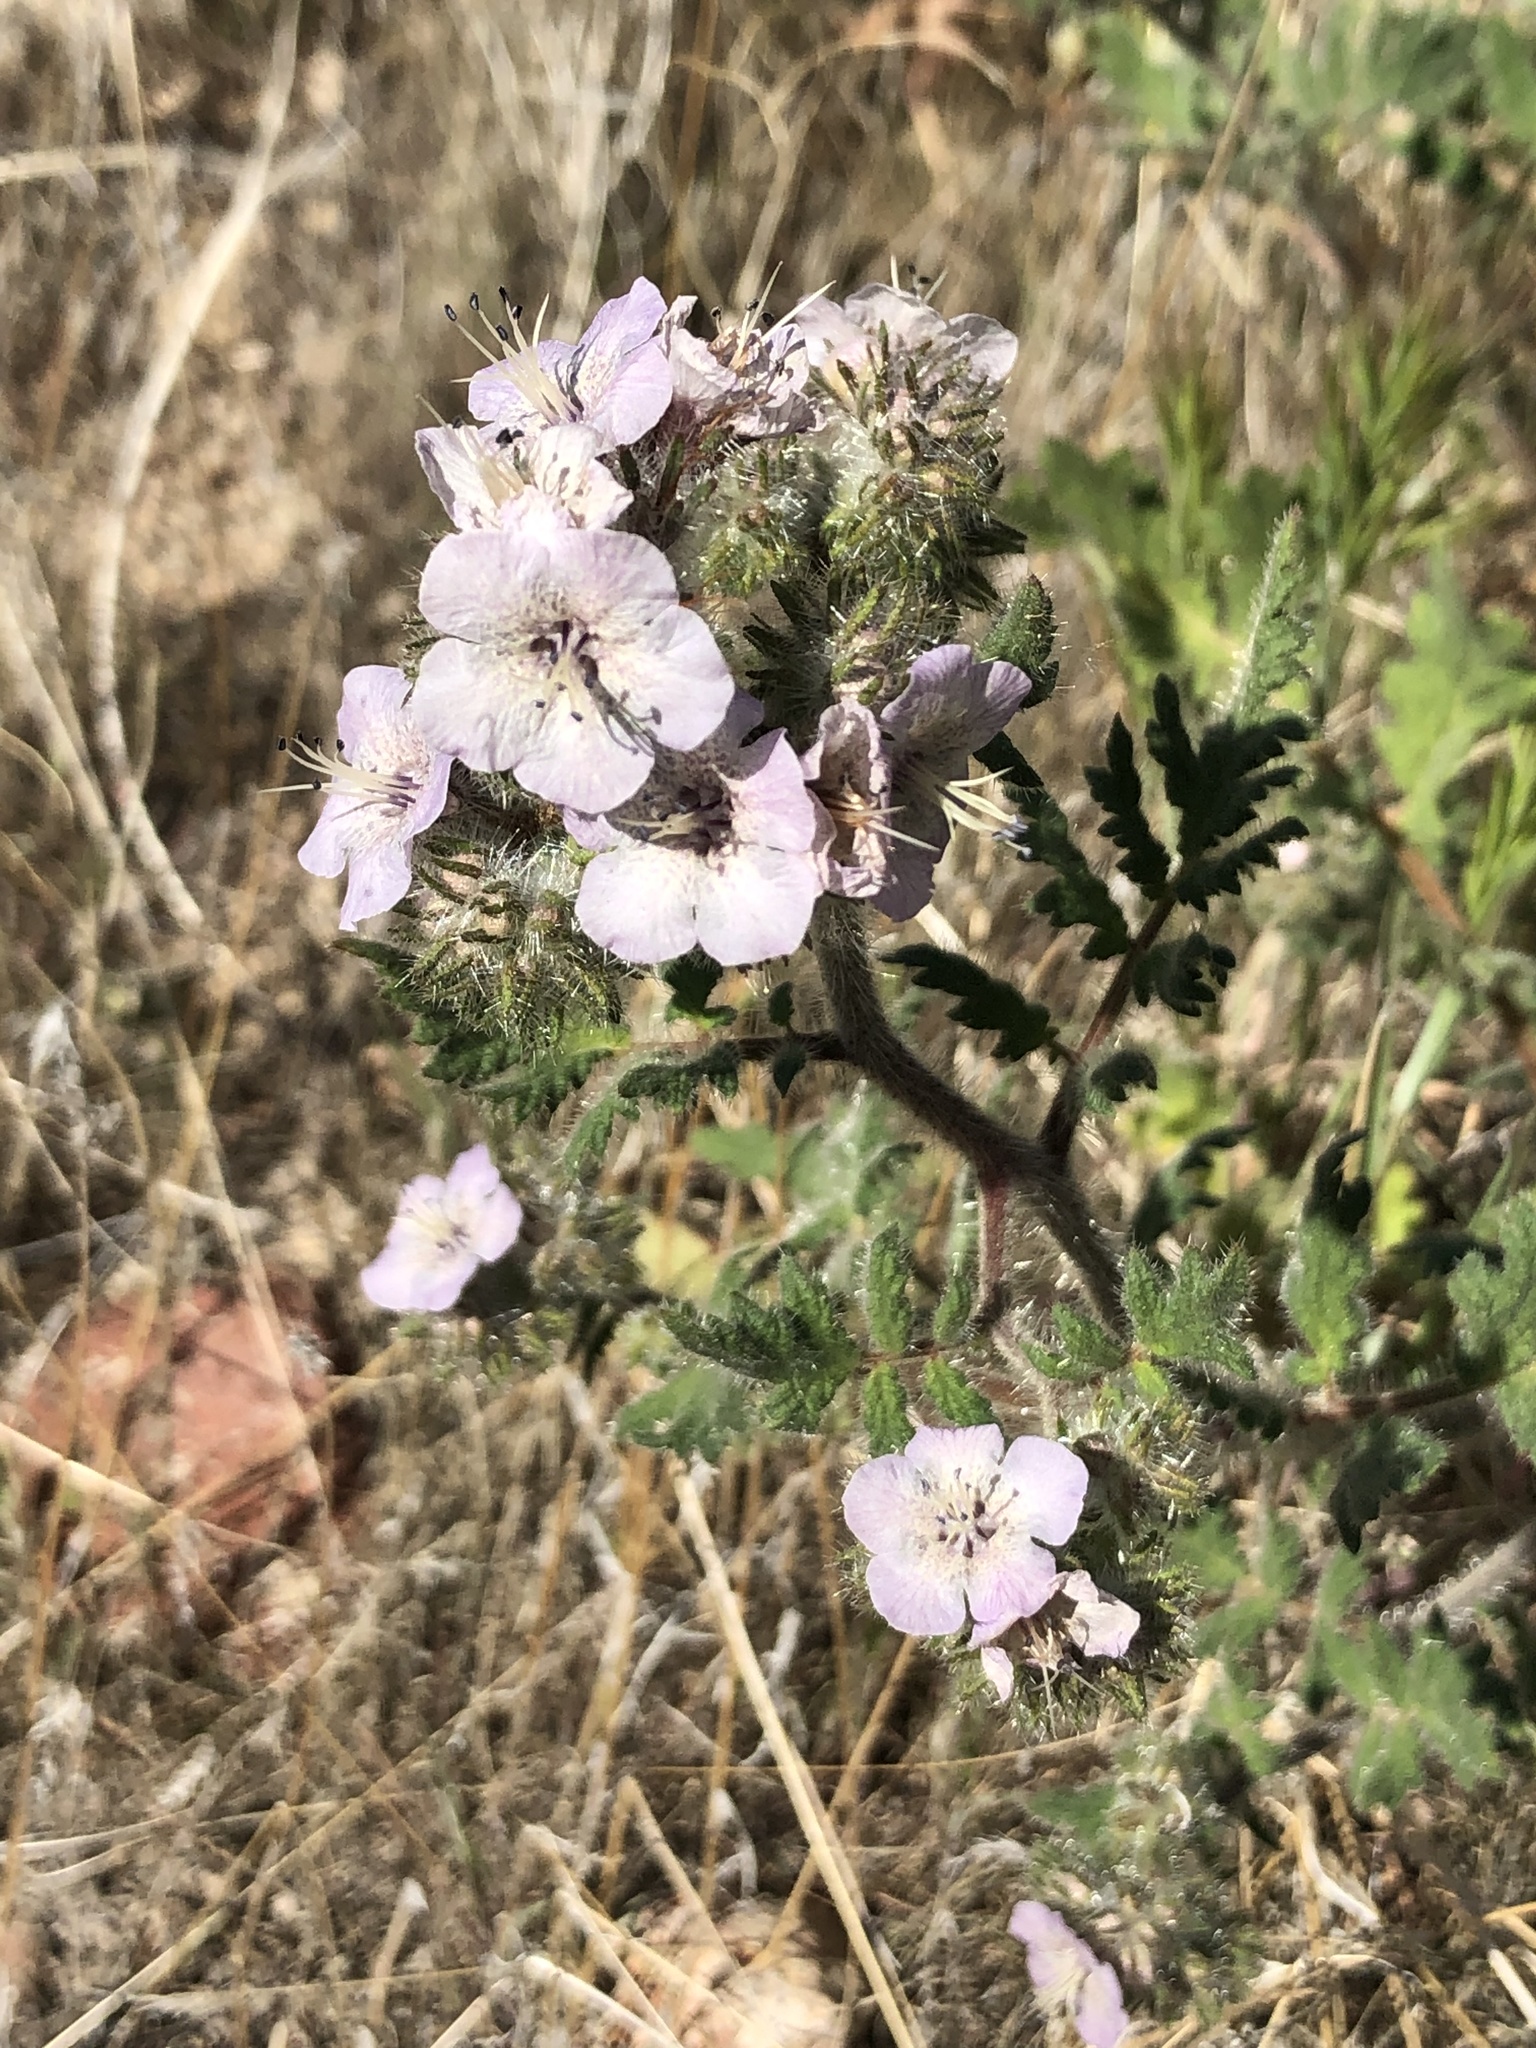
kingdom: Plantae
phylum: Tracheophyta
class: Magnoliopsida
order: Boraginales
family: Hydrophyllaceae
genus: Phacelia
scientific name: Phacelia cicutaria
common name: Caterpillar phacelia
